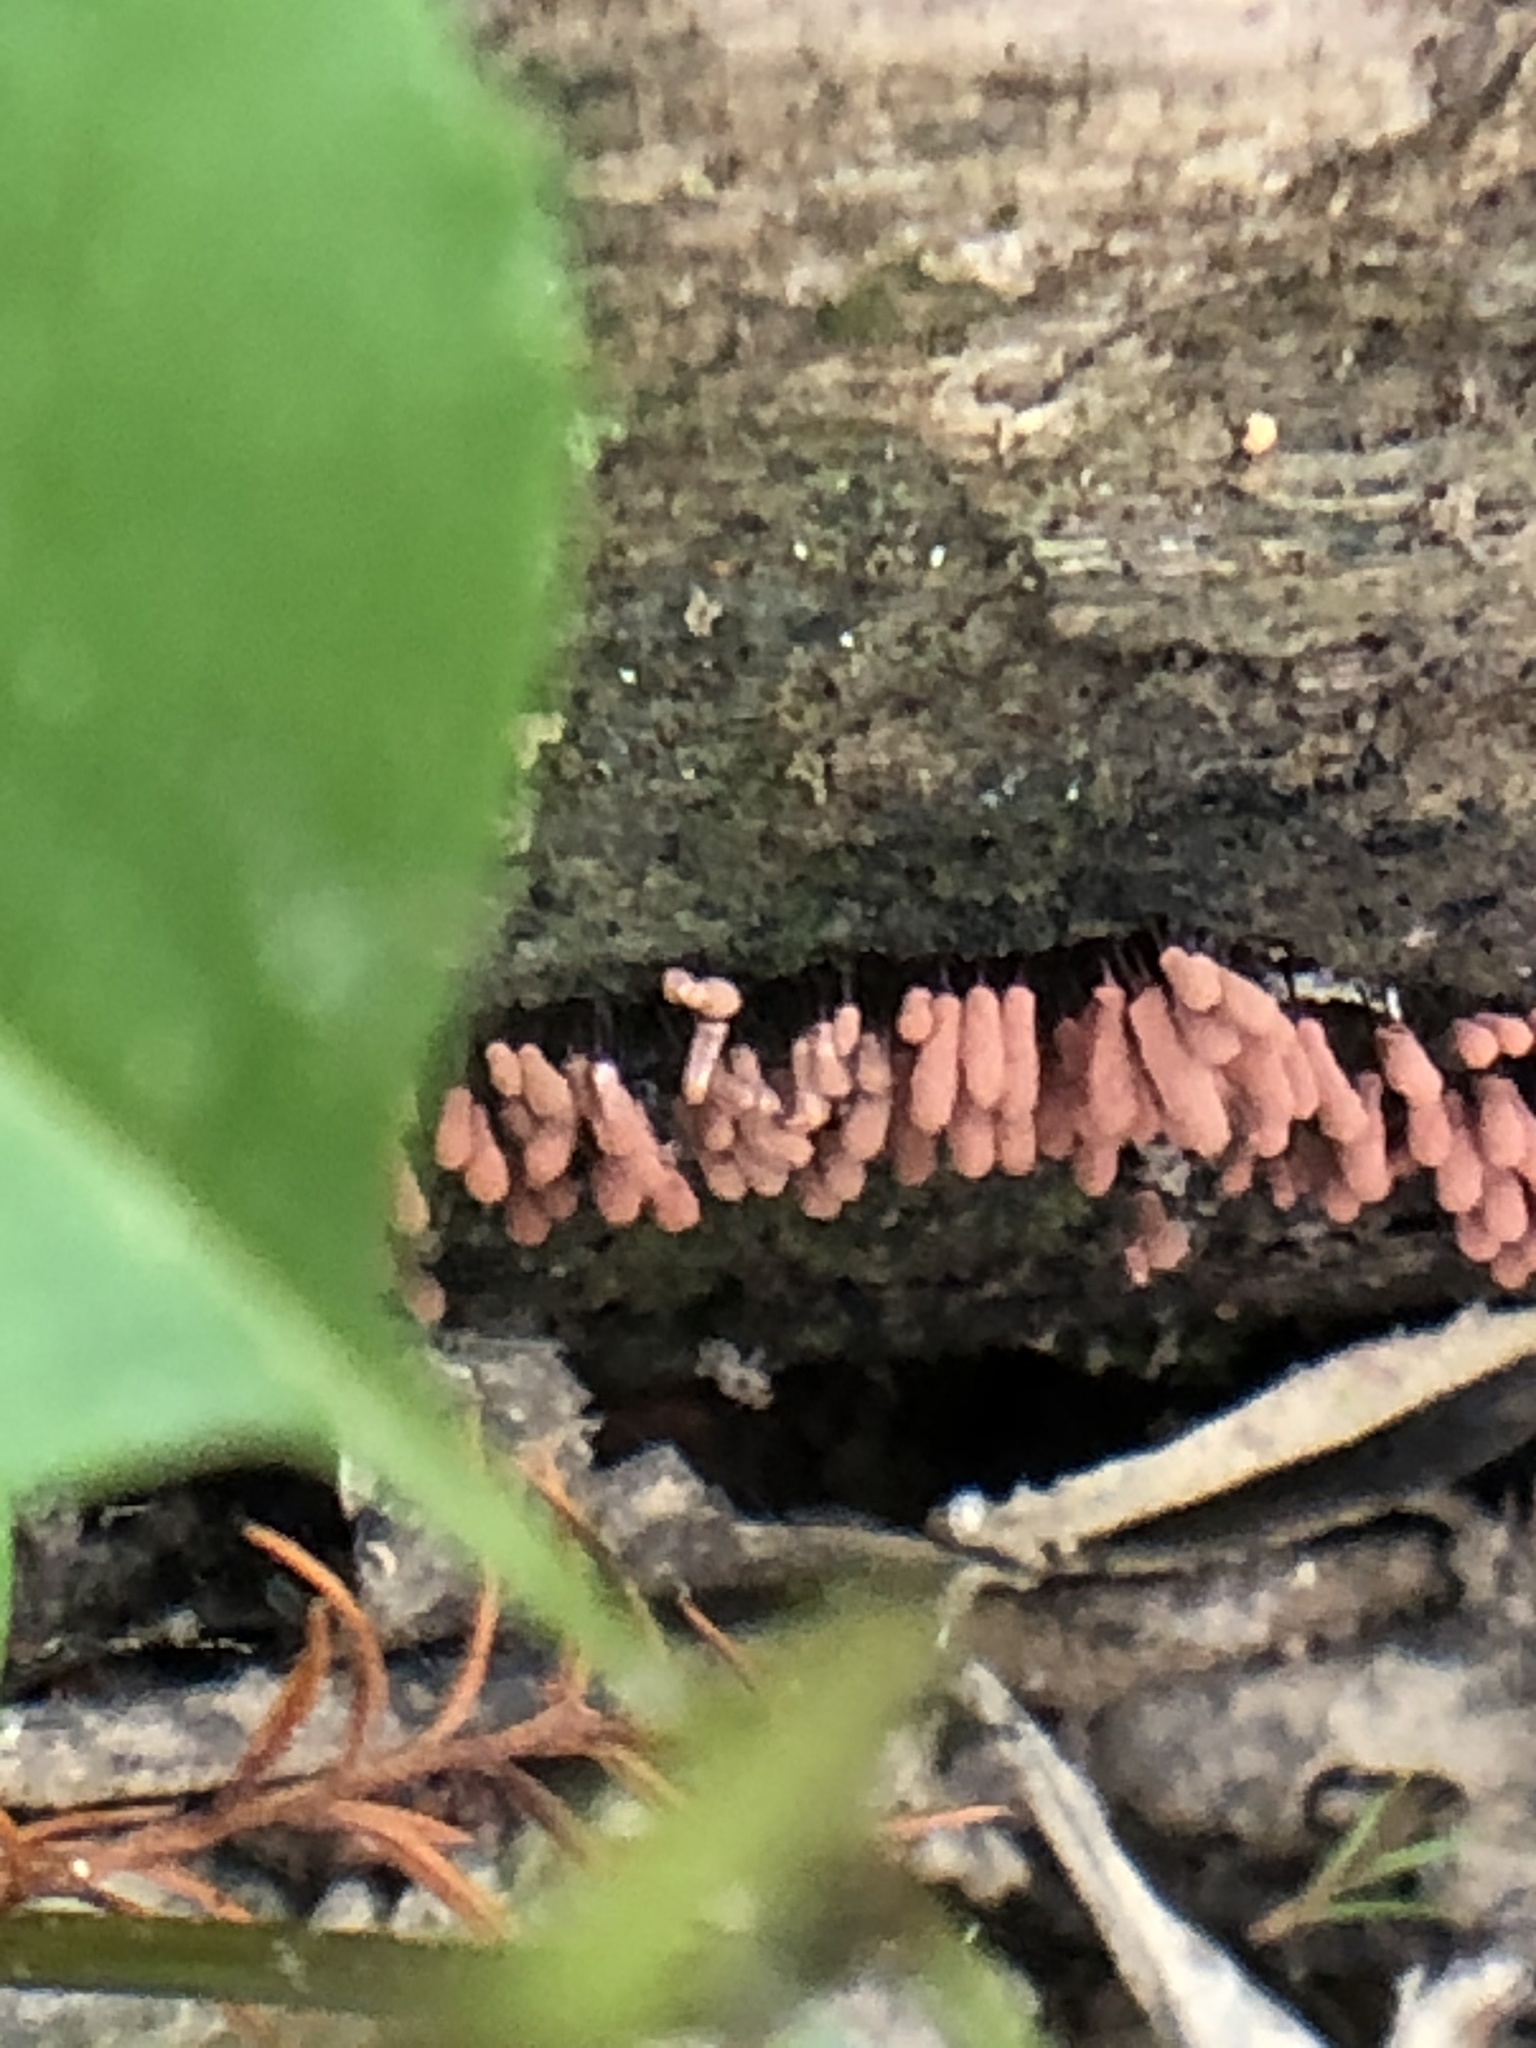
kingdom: Protozoa
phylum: Mycetozoa
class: Myxomycetes
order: Trichiales
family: Arcyriaceae
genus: Arcyria
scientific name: Arcyria denudata
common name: Carnival candy slime mold
